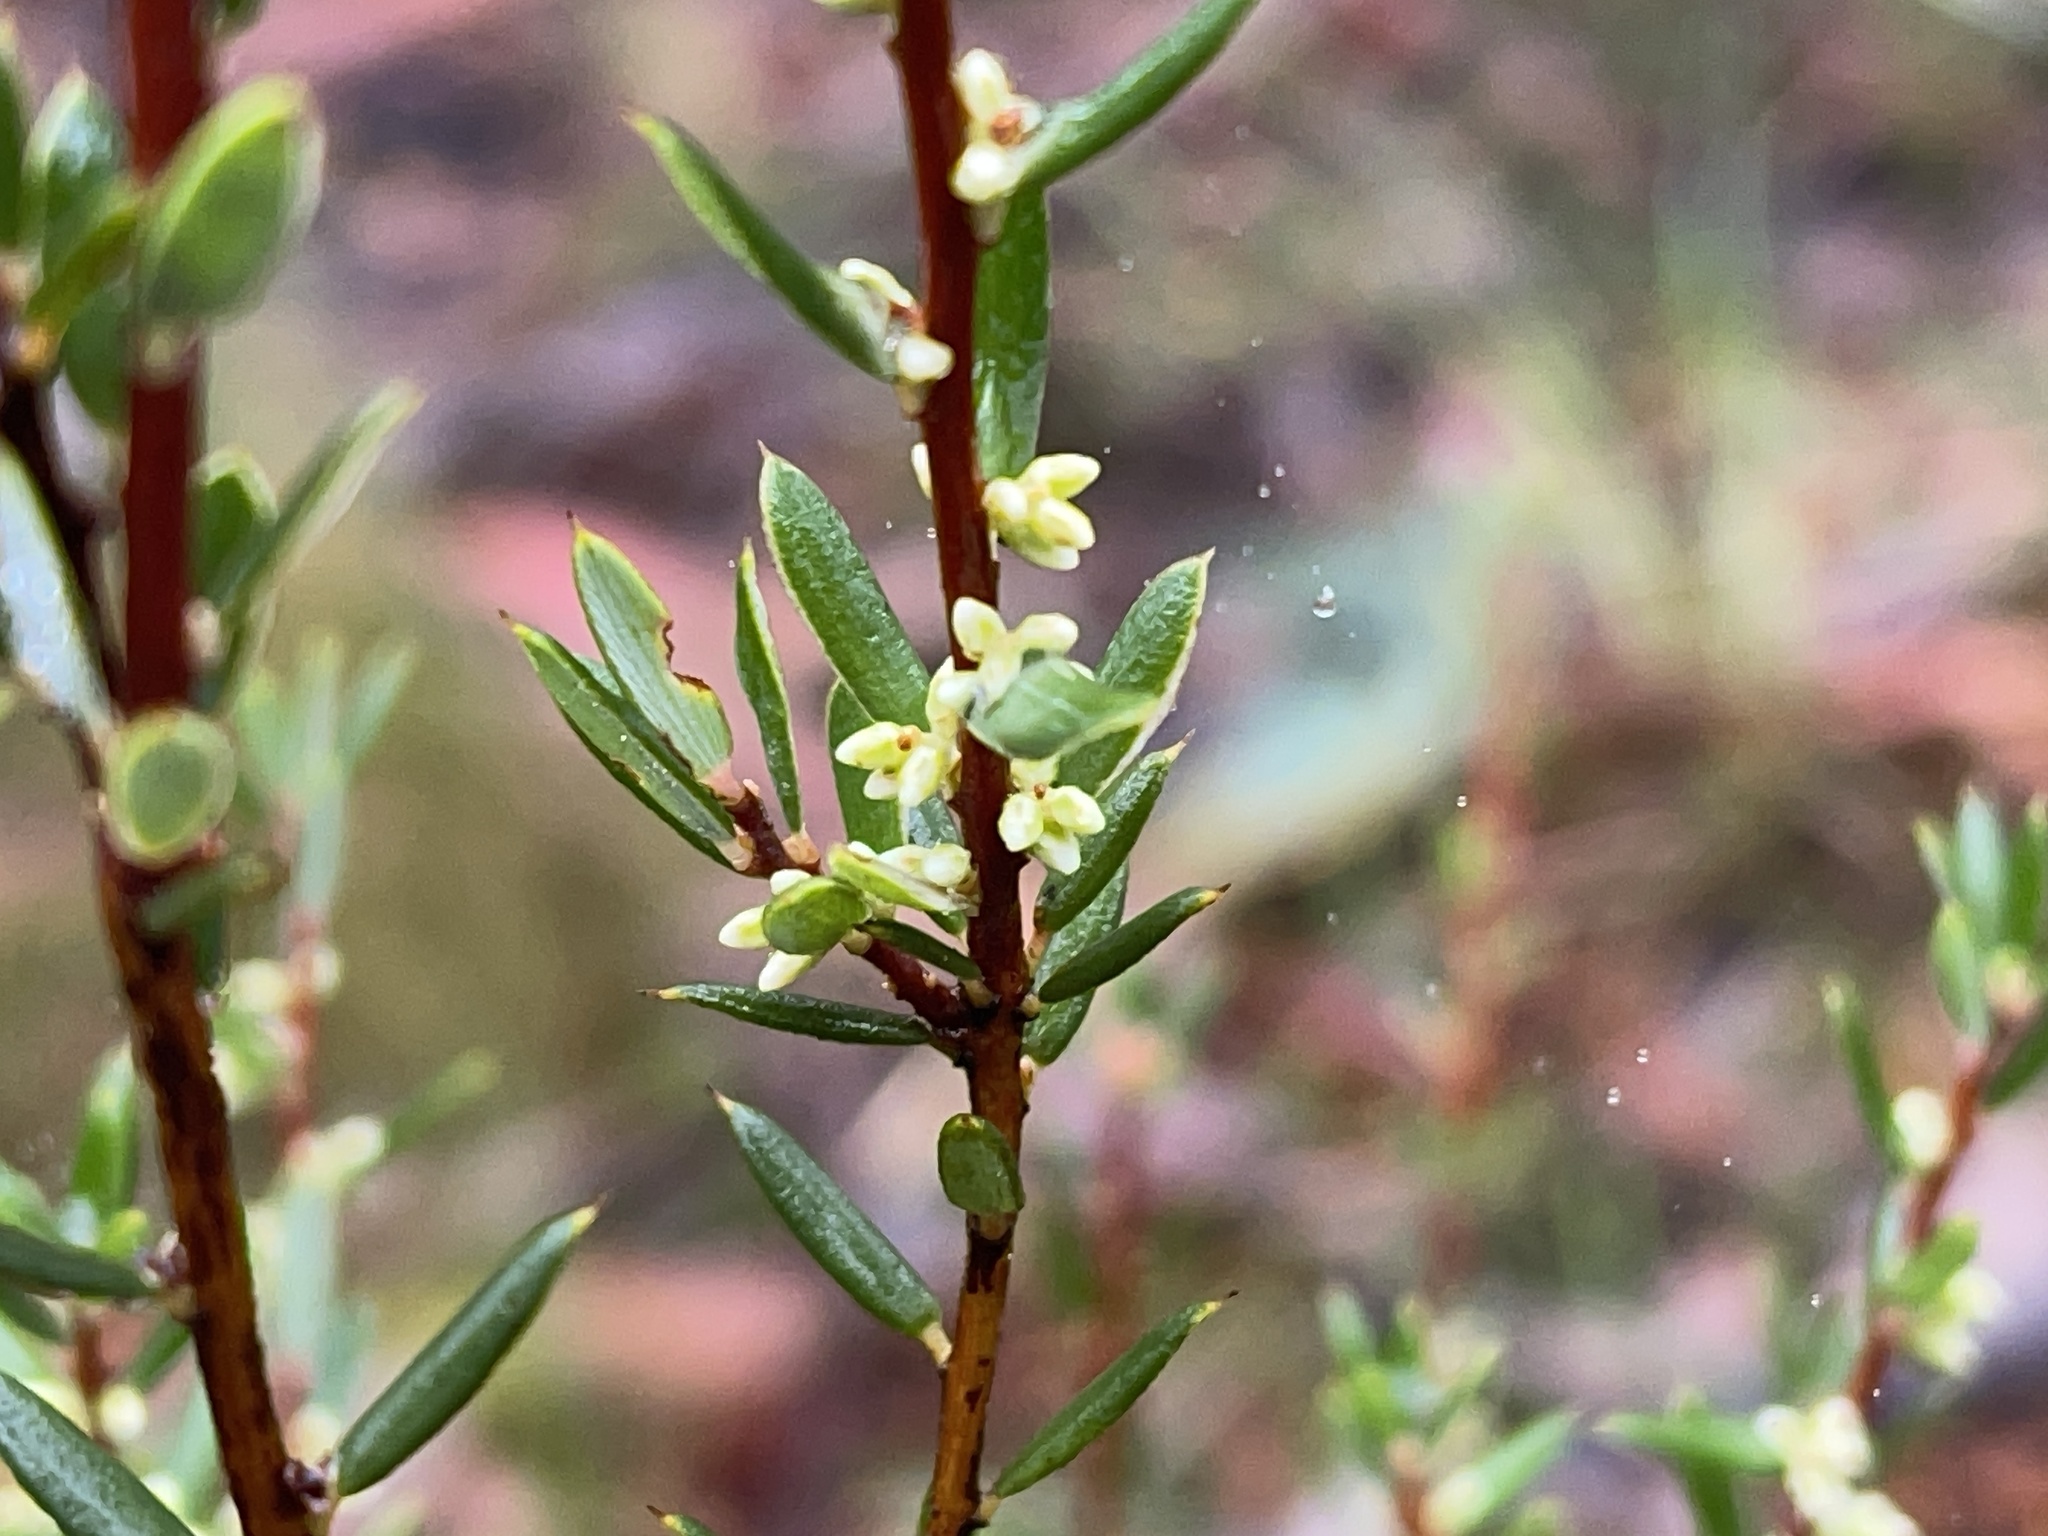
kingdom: Plantae
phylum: Tracheophyta
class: Magnoliopsida
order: Ericales
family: Ericaceae
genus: Monotoca
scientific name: Monotoca scoparia
